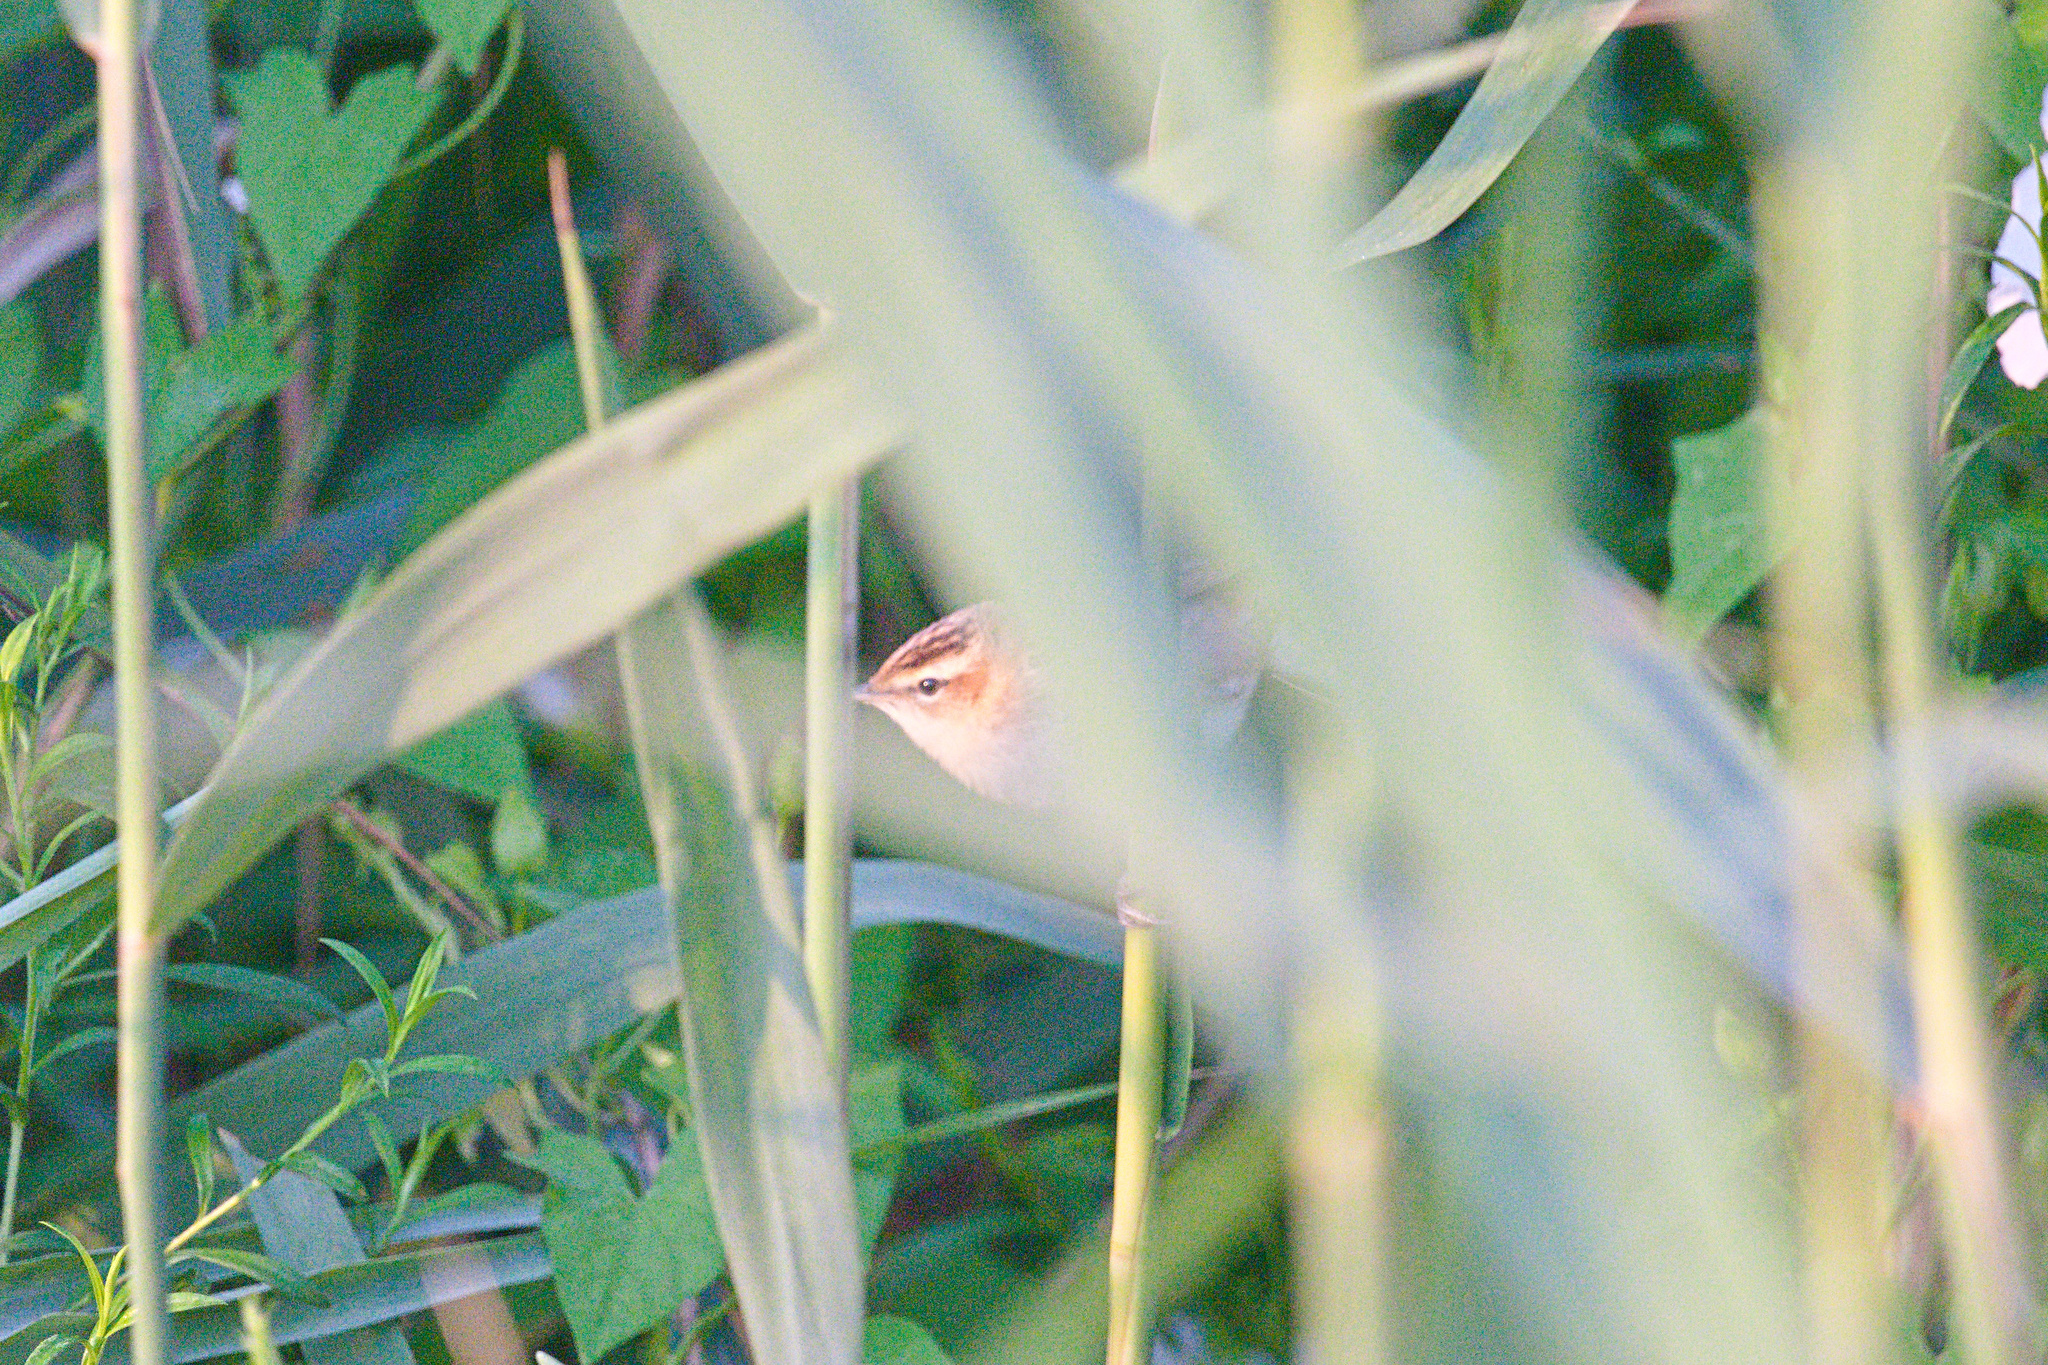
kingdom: Animalia
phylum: Chordata
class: Aves
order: Passeriformes
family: Acrocephalidae
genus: Acrocephalus
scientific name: Acrocephalus schoenobaenus
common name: Sedge warbler
